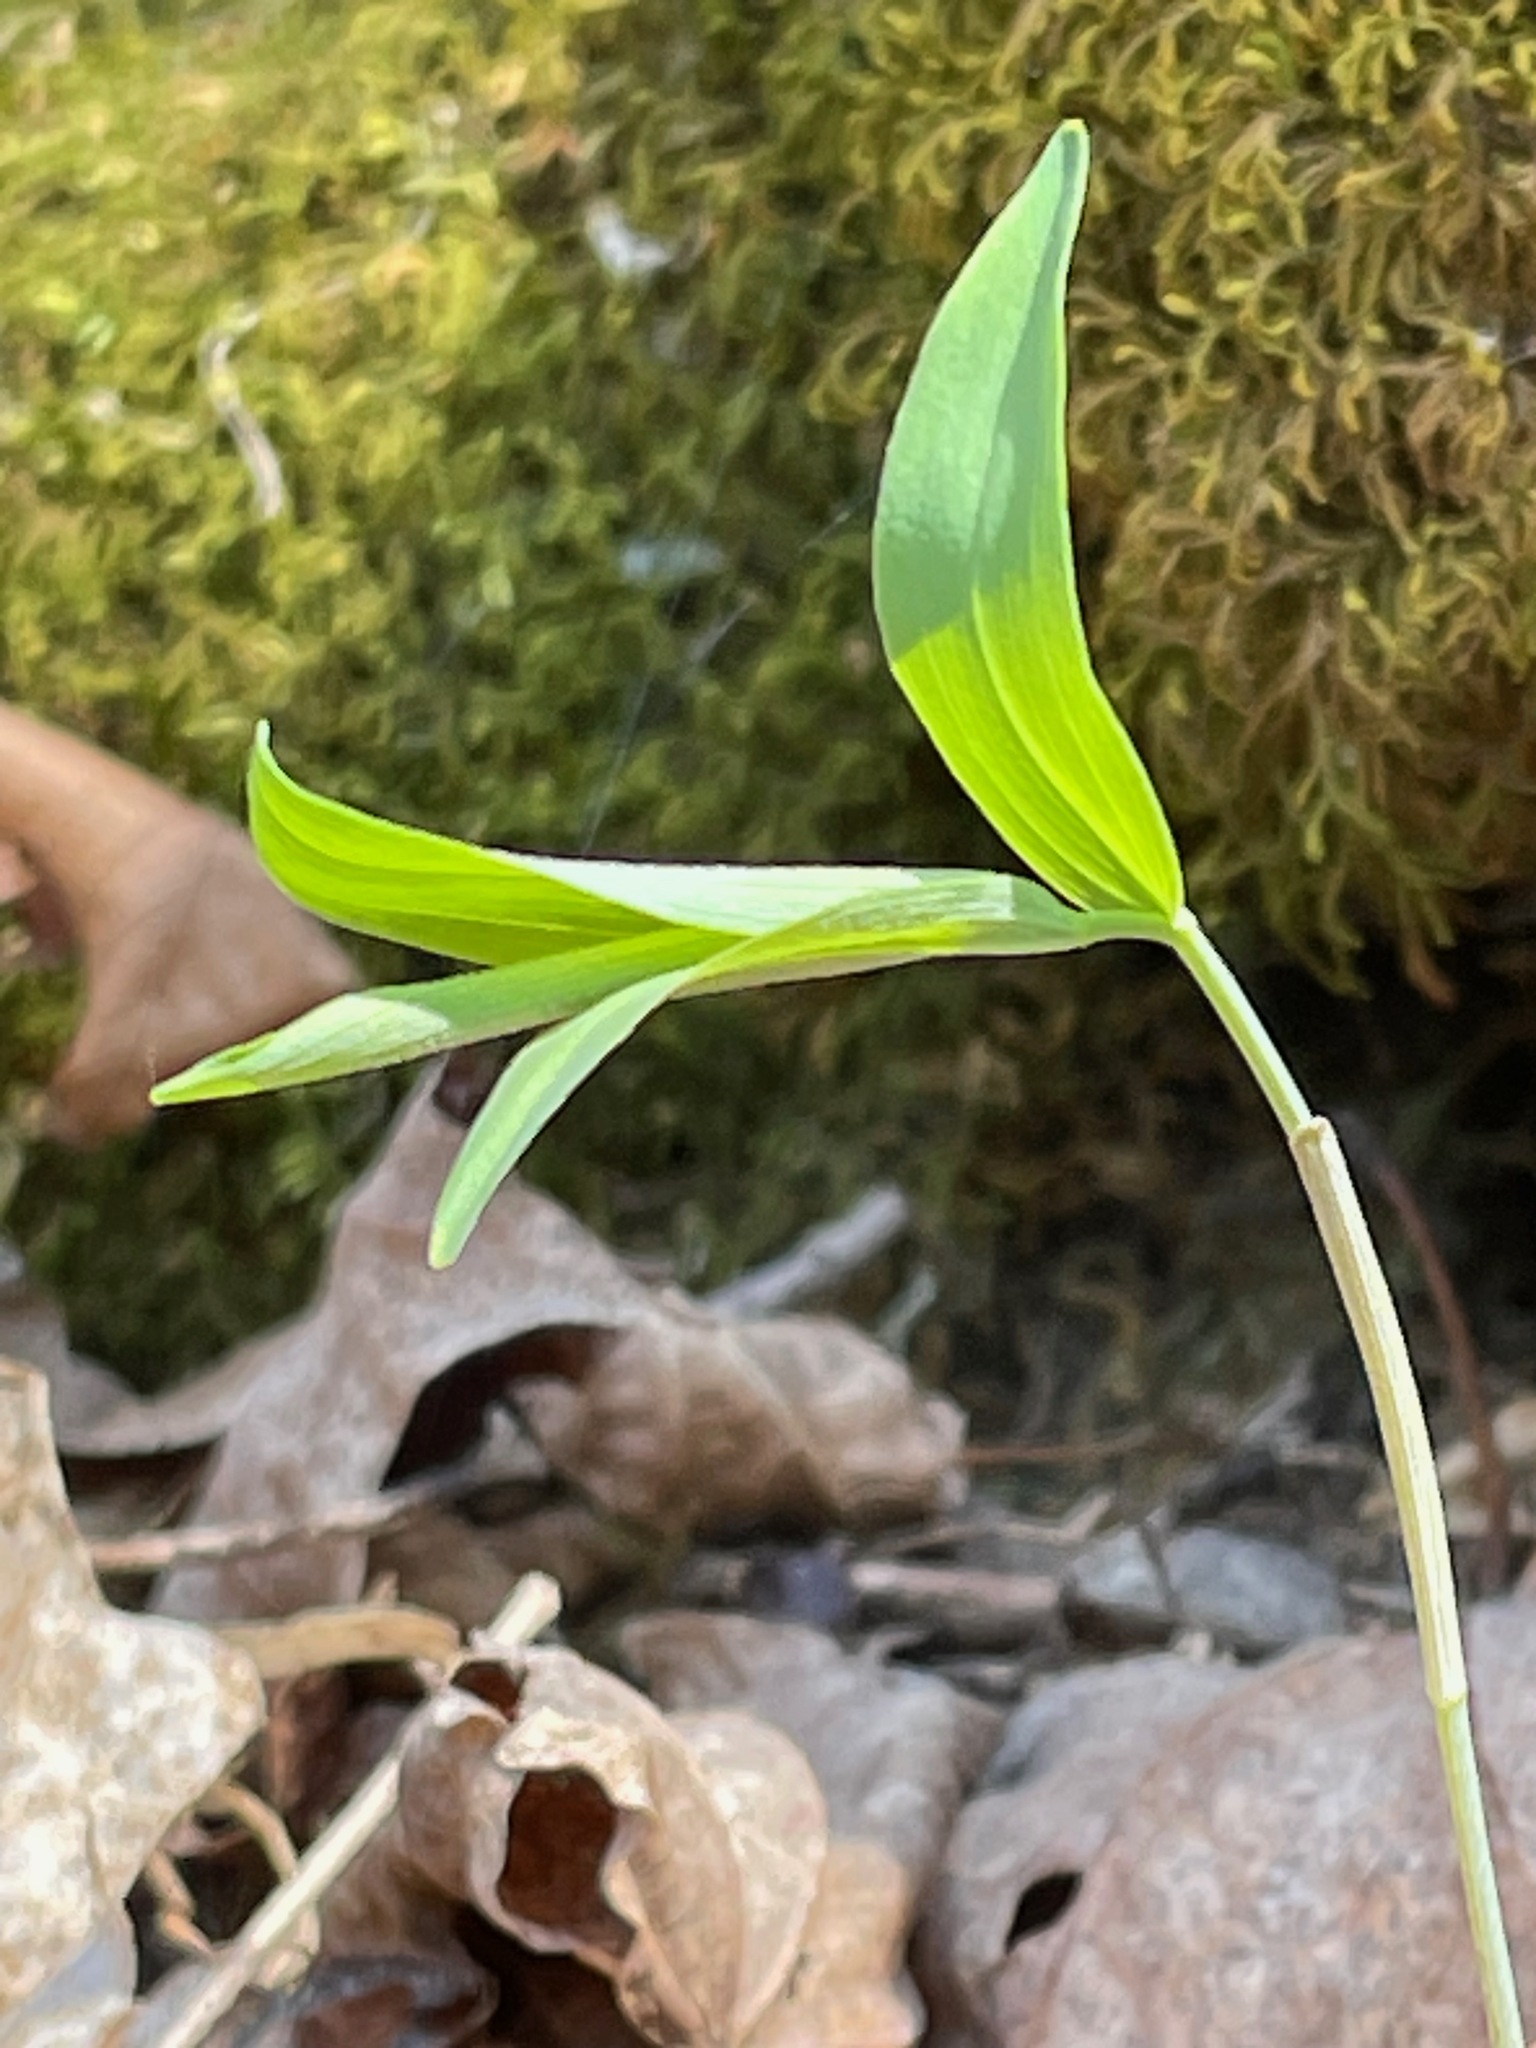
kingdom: Plantae
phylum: Tracheophyta
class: Liliopsida
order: Asparagales
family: Asparagaceae
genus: Polygonatum
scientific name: Polygonatum pubescens
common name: Downy solomon's seal
